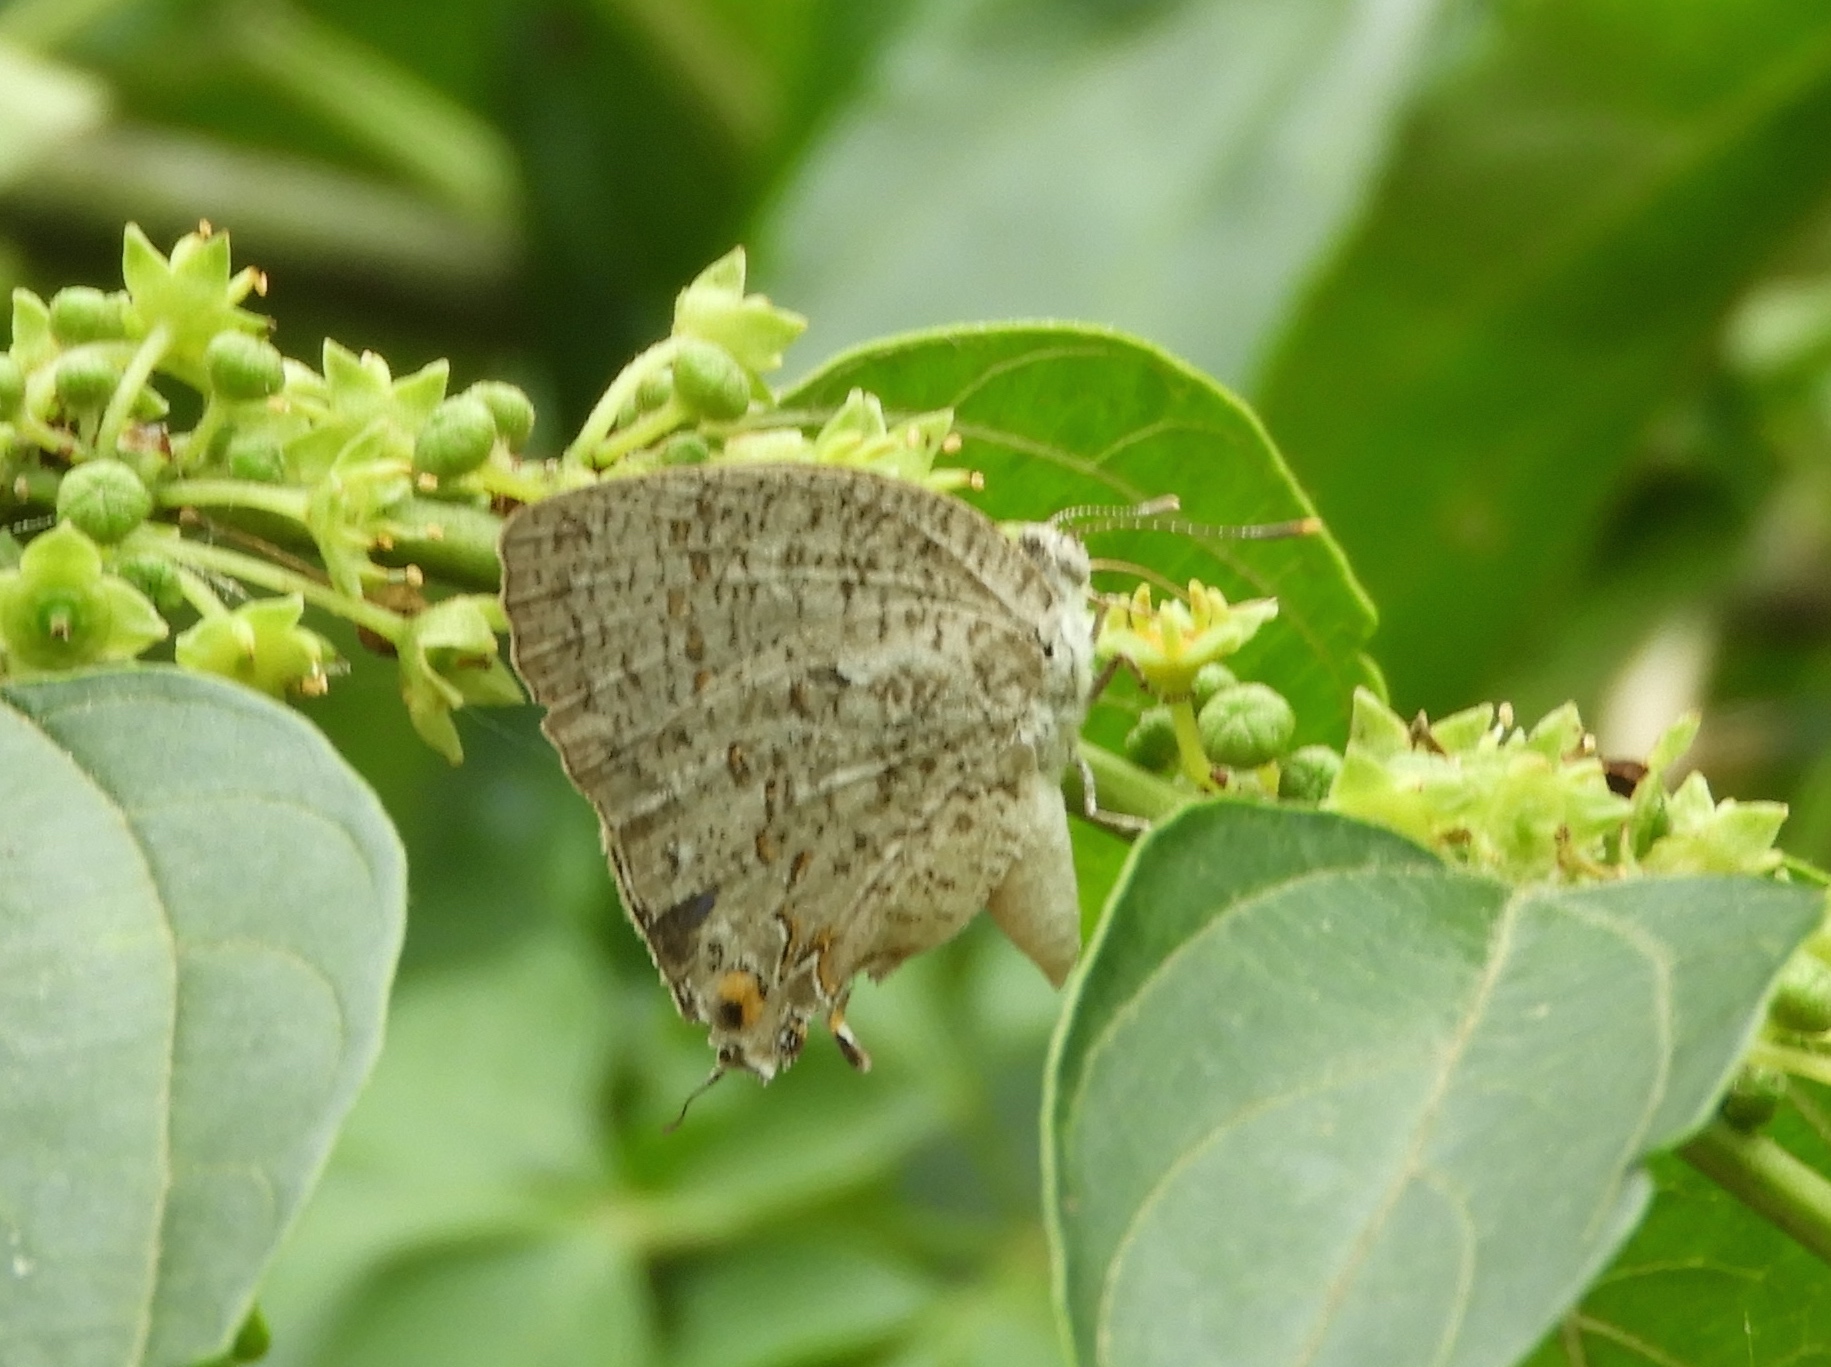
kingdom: Animalia
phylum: Arthropoda
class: Insecta
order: Lepidoptera
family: Lycaenidae
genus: Hypostrymon
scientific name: Hypostrymon critola
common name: Sonoran hairstreak
